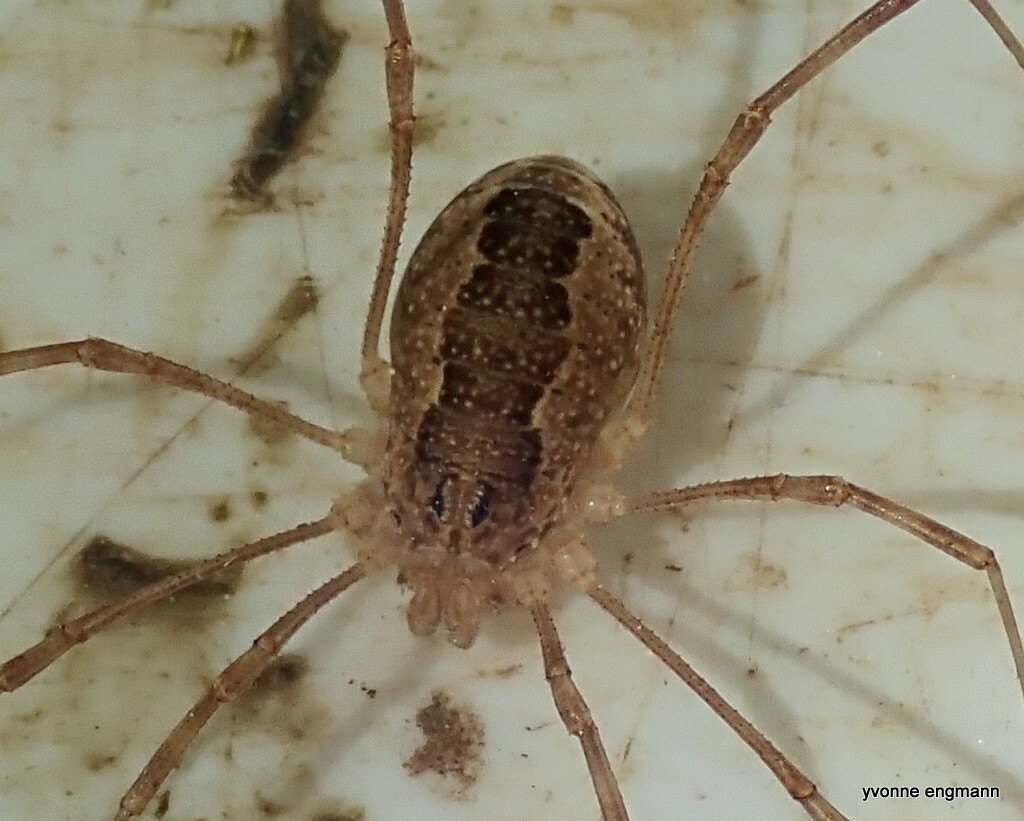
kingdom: Animalia
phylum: Arthropoda
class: Arachnida
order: Opiliones
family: Phalangiidae
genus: Rilaena
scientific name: Rilaena triangularis
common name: Spring harvestman
